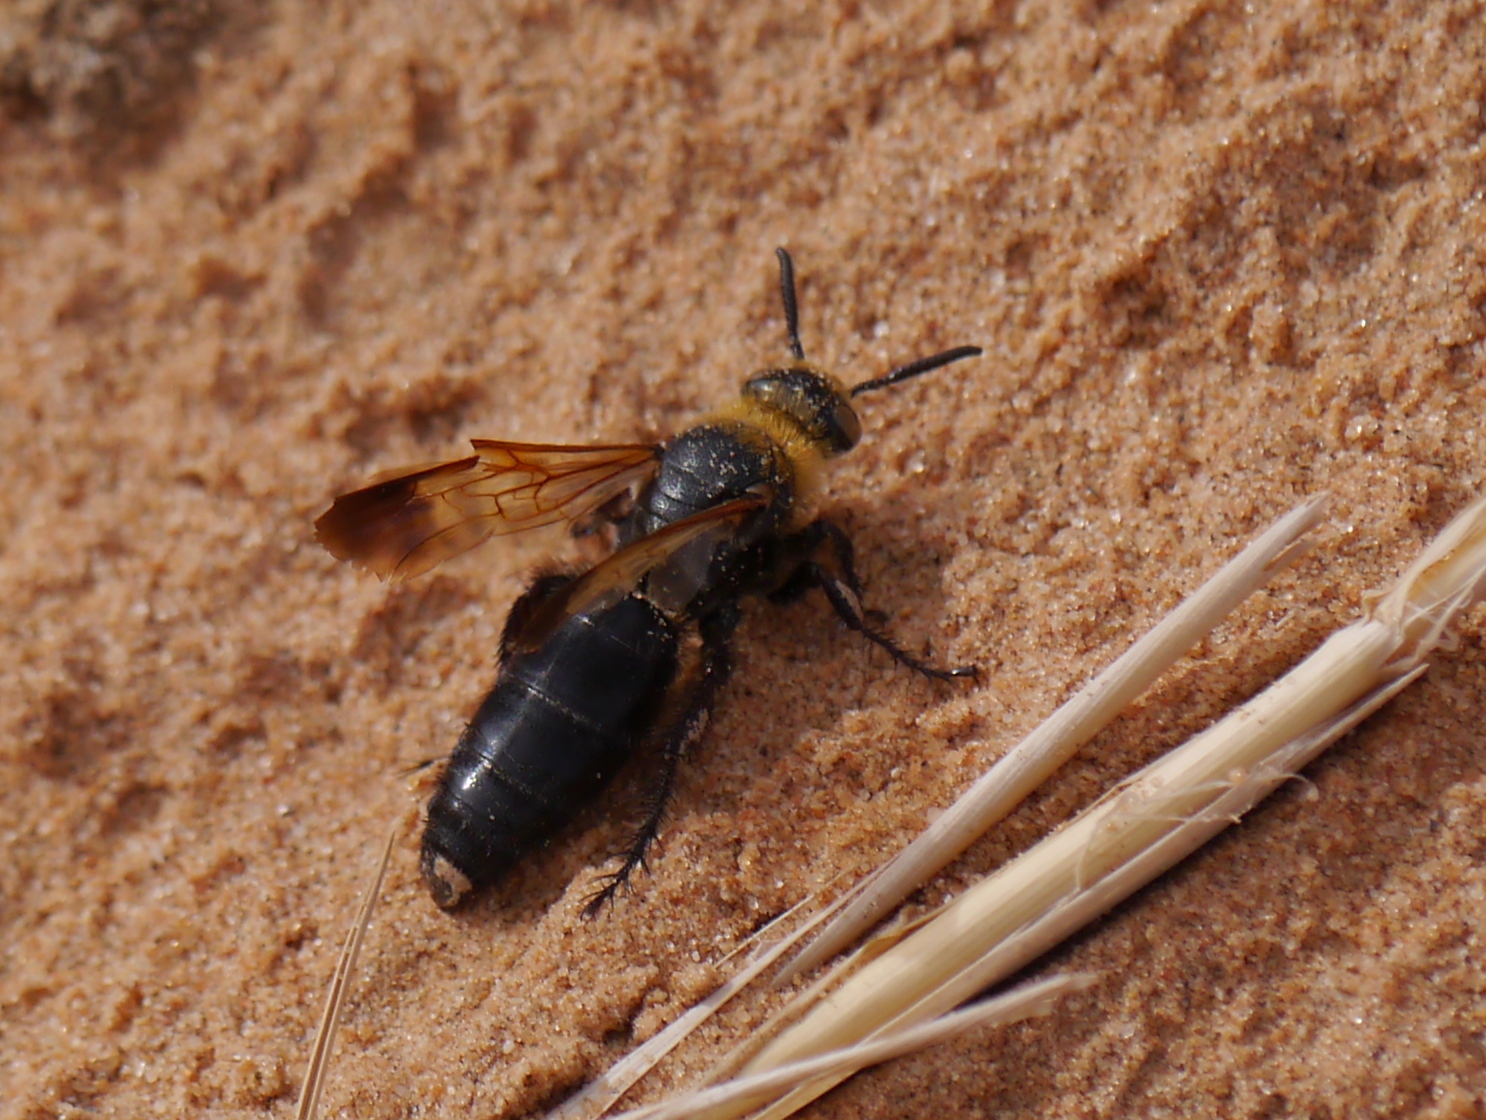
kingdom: Animalia
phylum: Arthropoda
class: Insecta
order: Hymenoptera
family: Scoliidae
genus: Campsomeriella
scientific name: Campsomeriella thoracica
